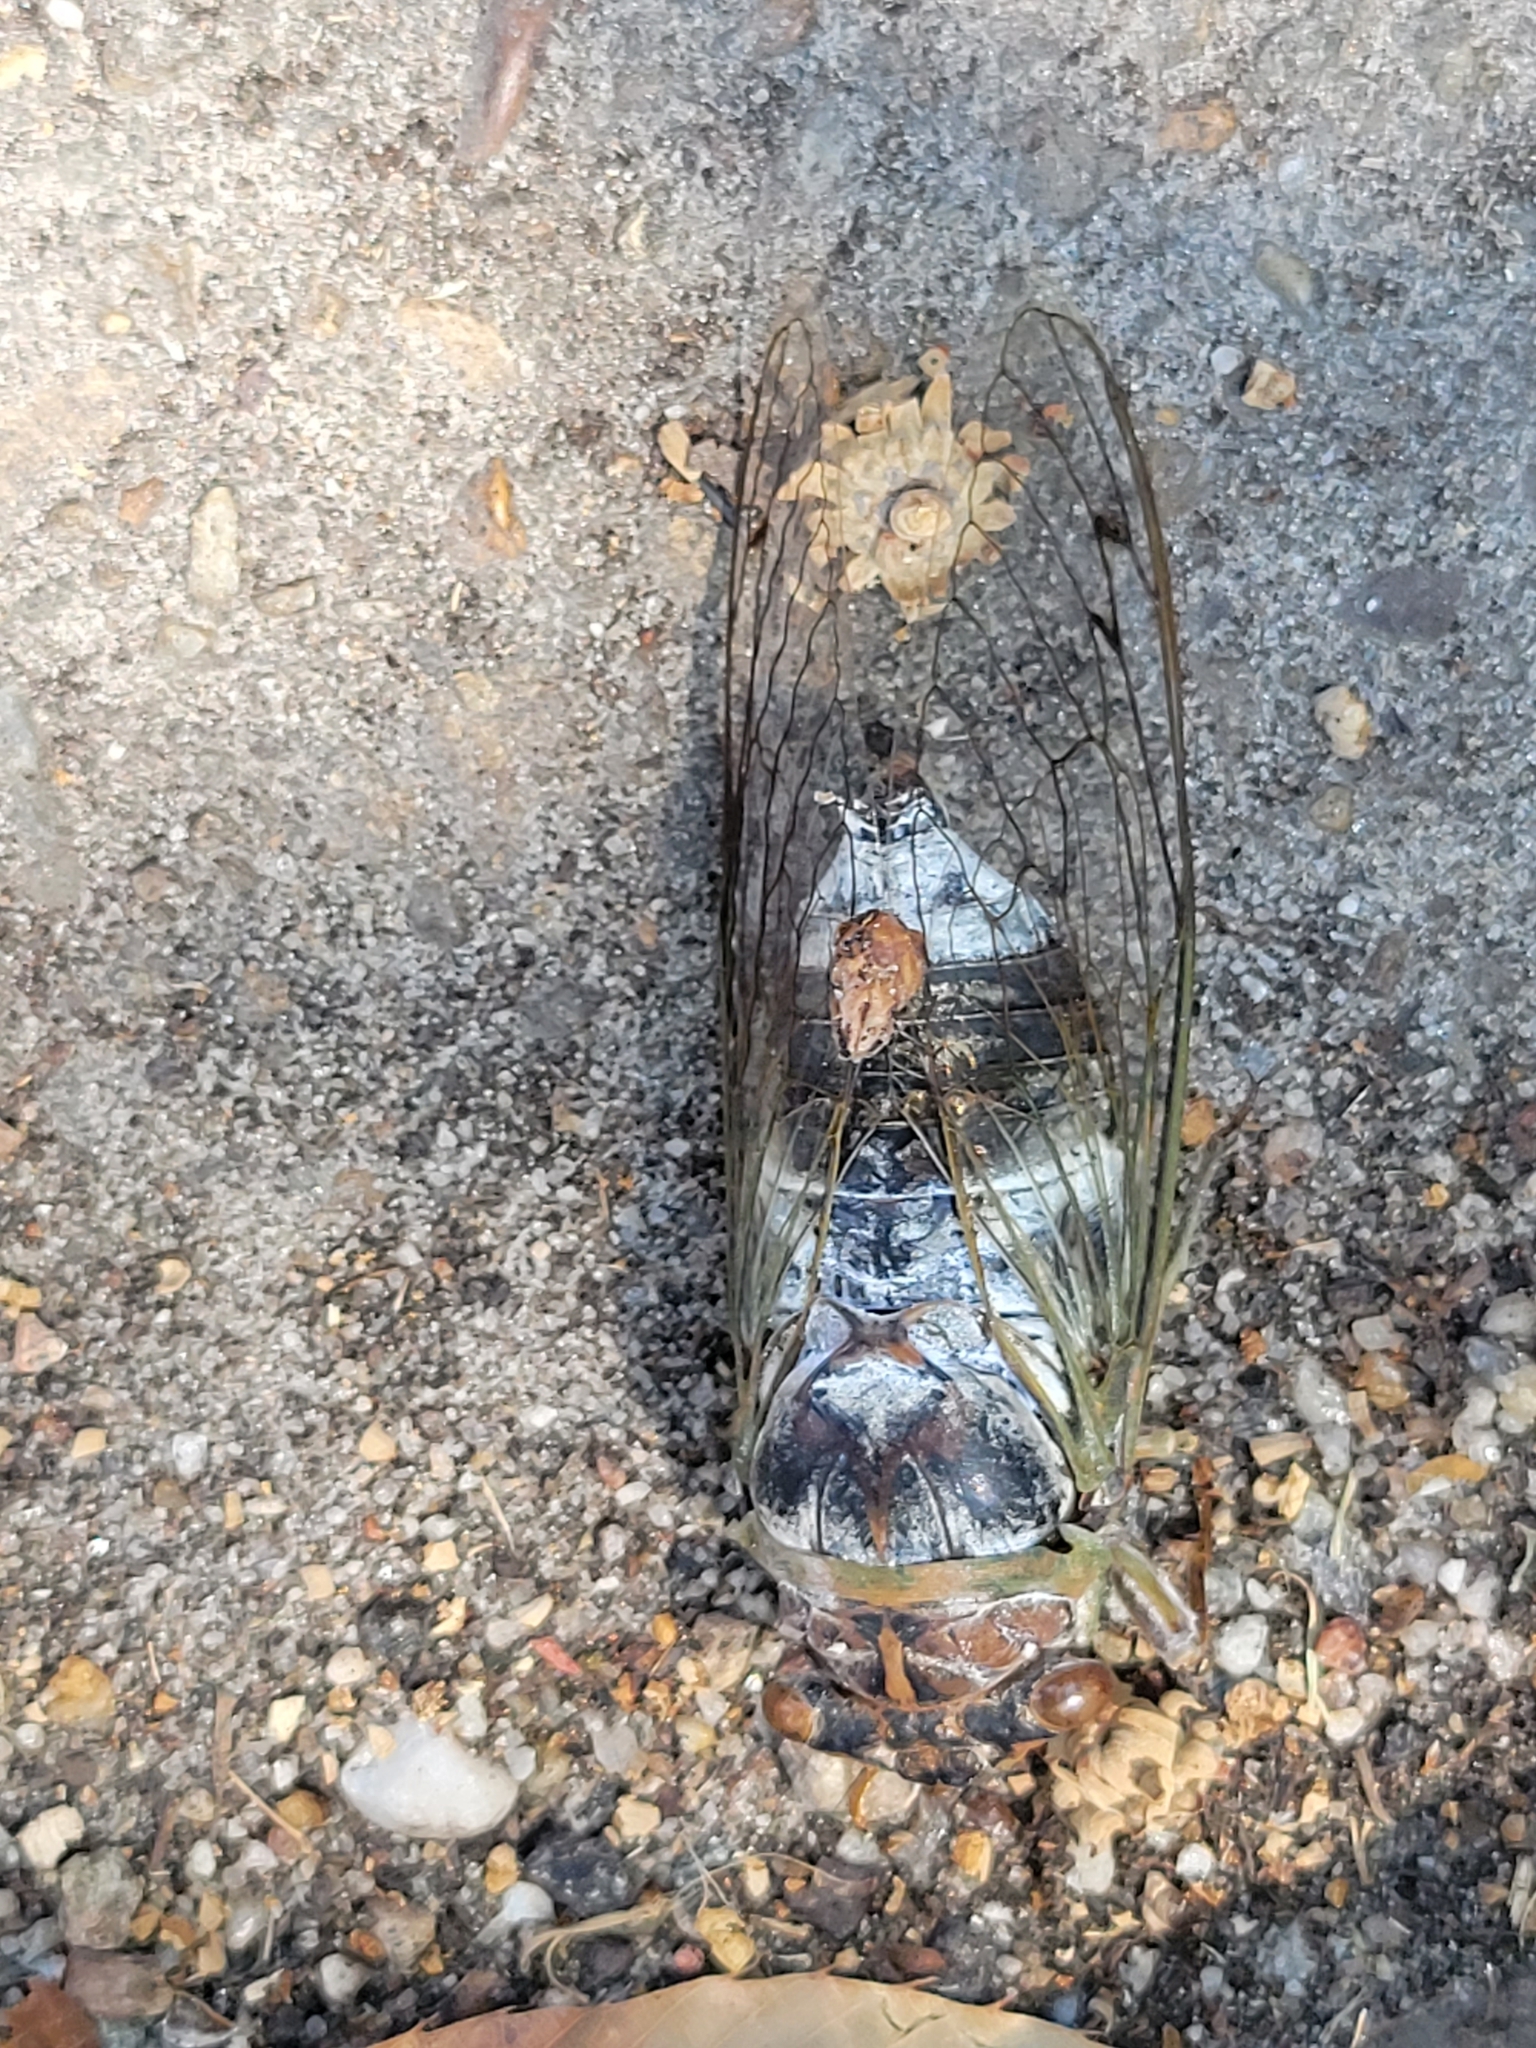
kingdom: Animalia
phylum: Arthropoda
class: Insecta
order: Hemiptera
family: Cicadidae
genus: Diceroprocta
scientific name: Diceroprocta grossa
